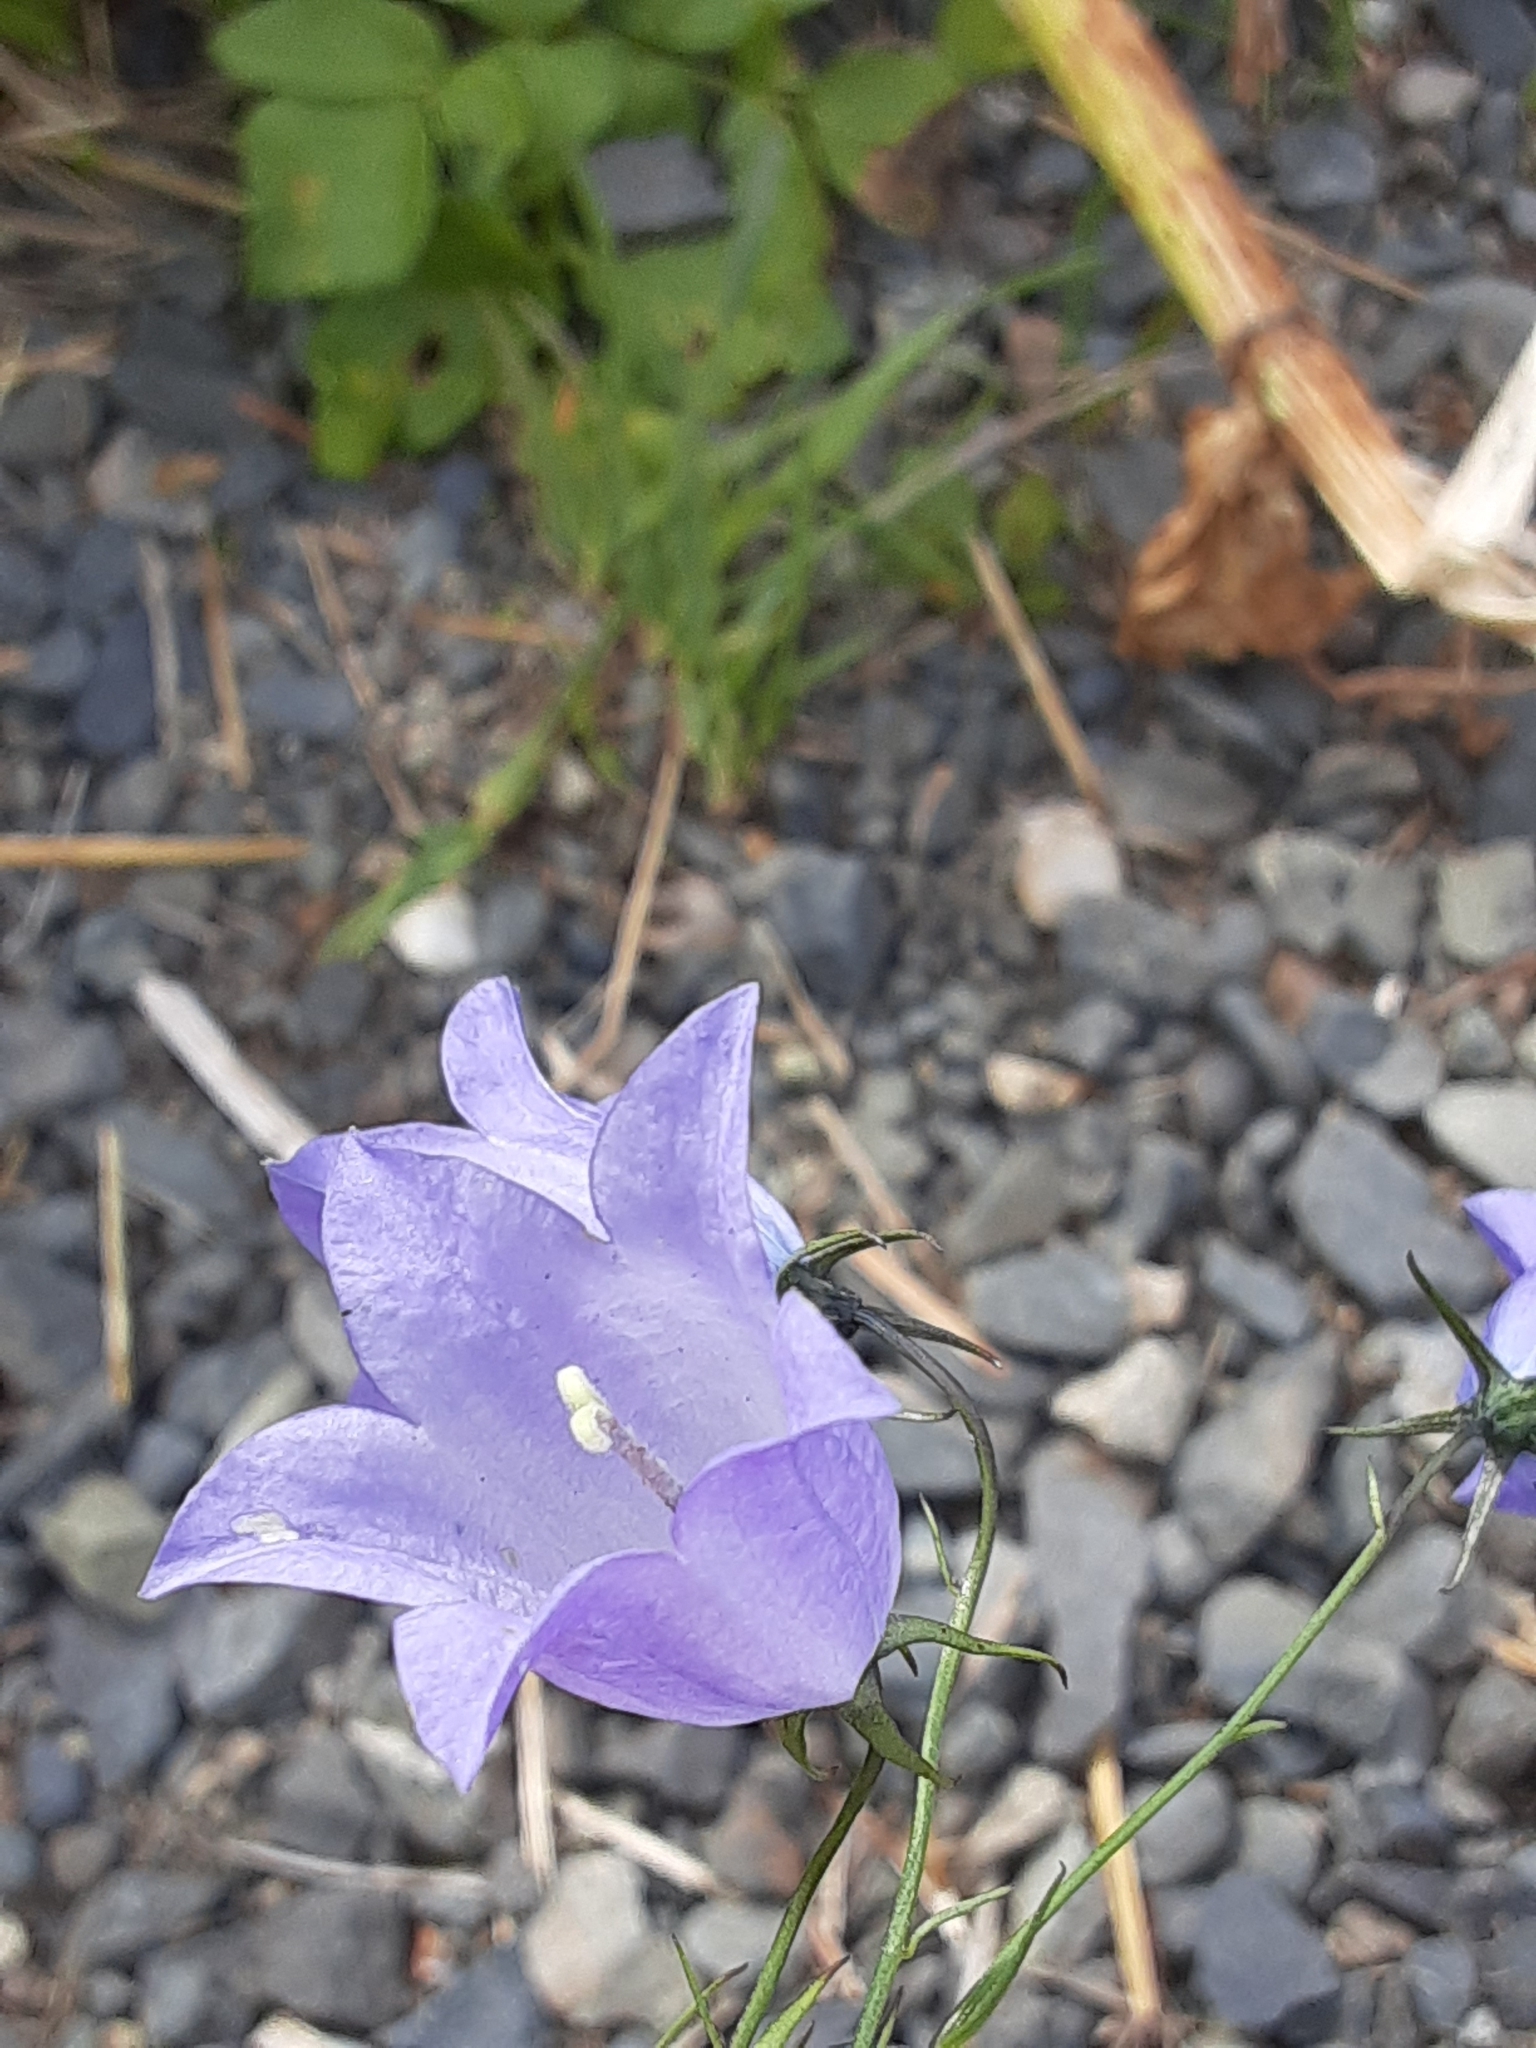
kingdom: Plantae
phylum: Tracheophyta
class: Magnoliopsida
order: Asterales
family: Campanulaceae
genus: Campanula
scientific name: Campanula alaskana
